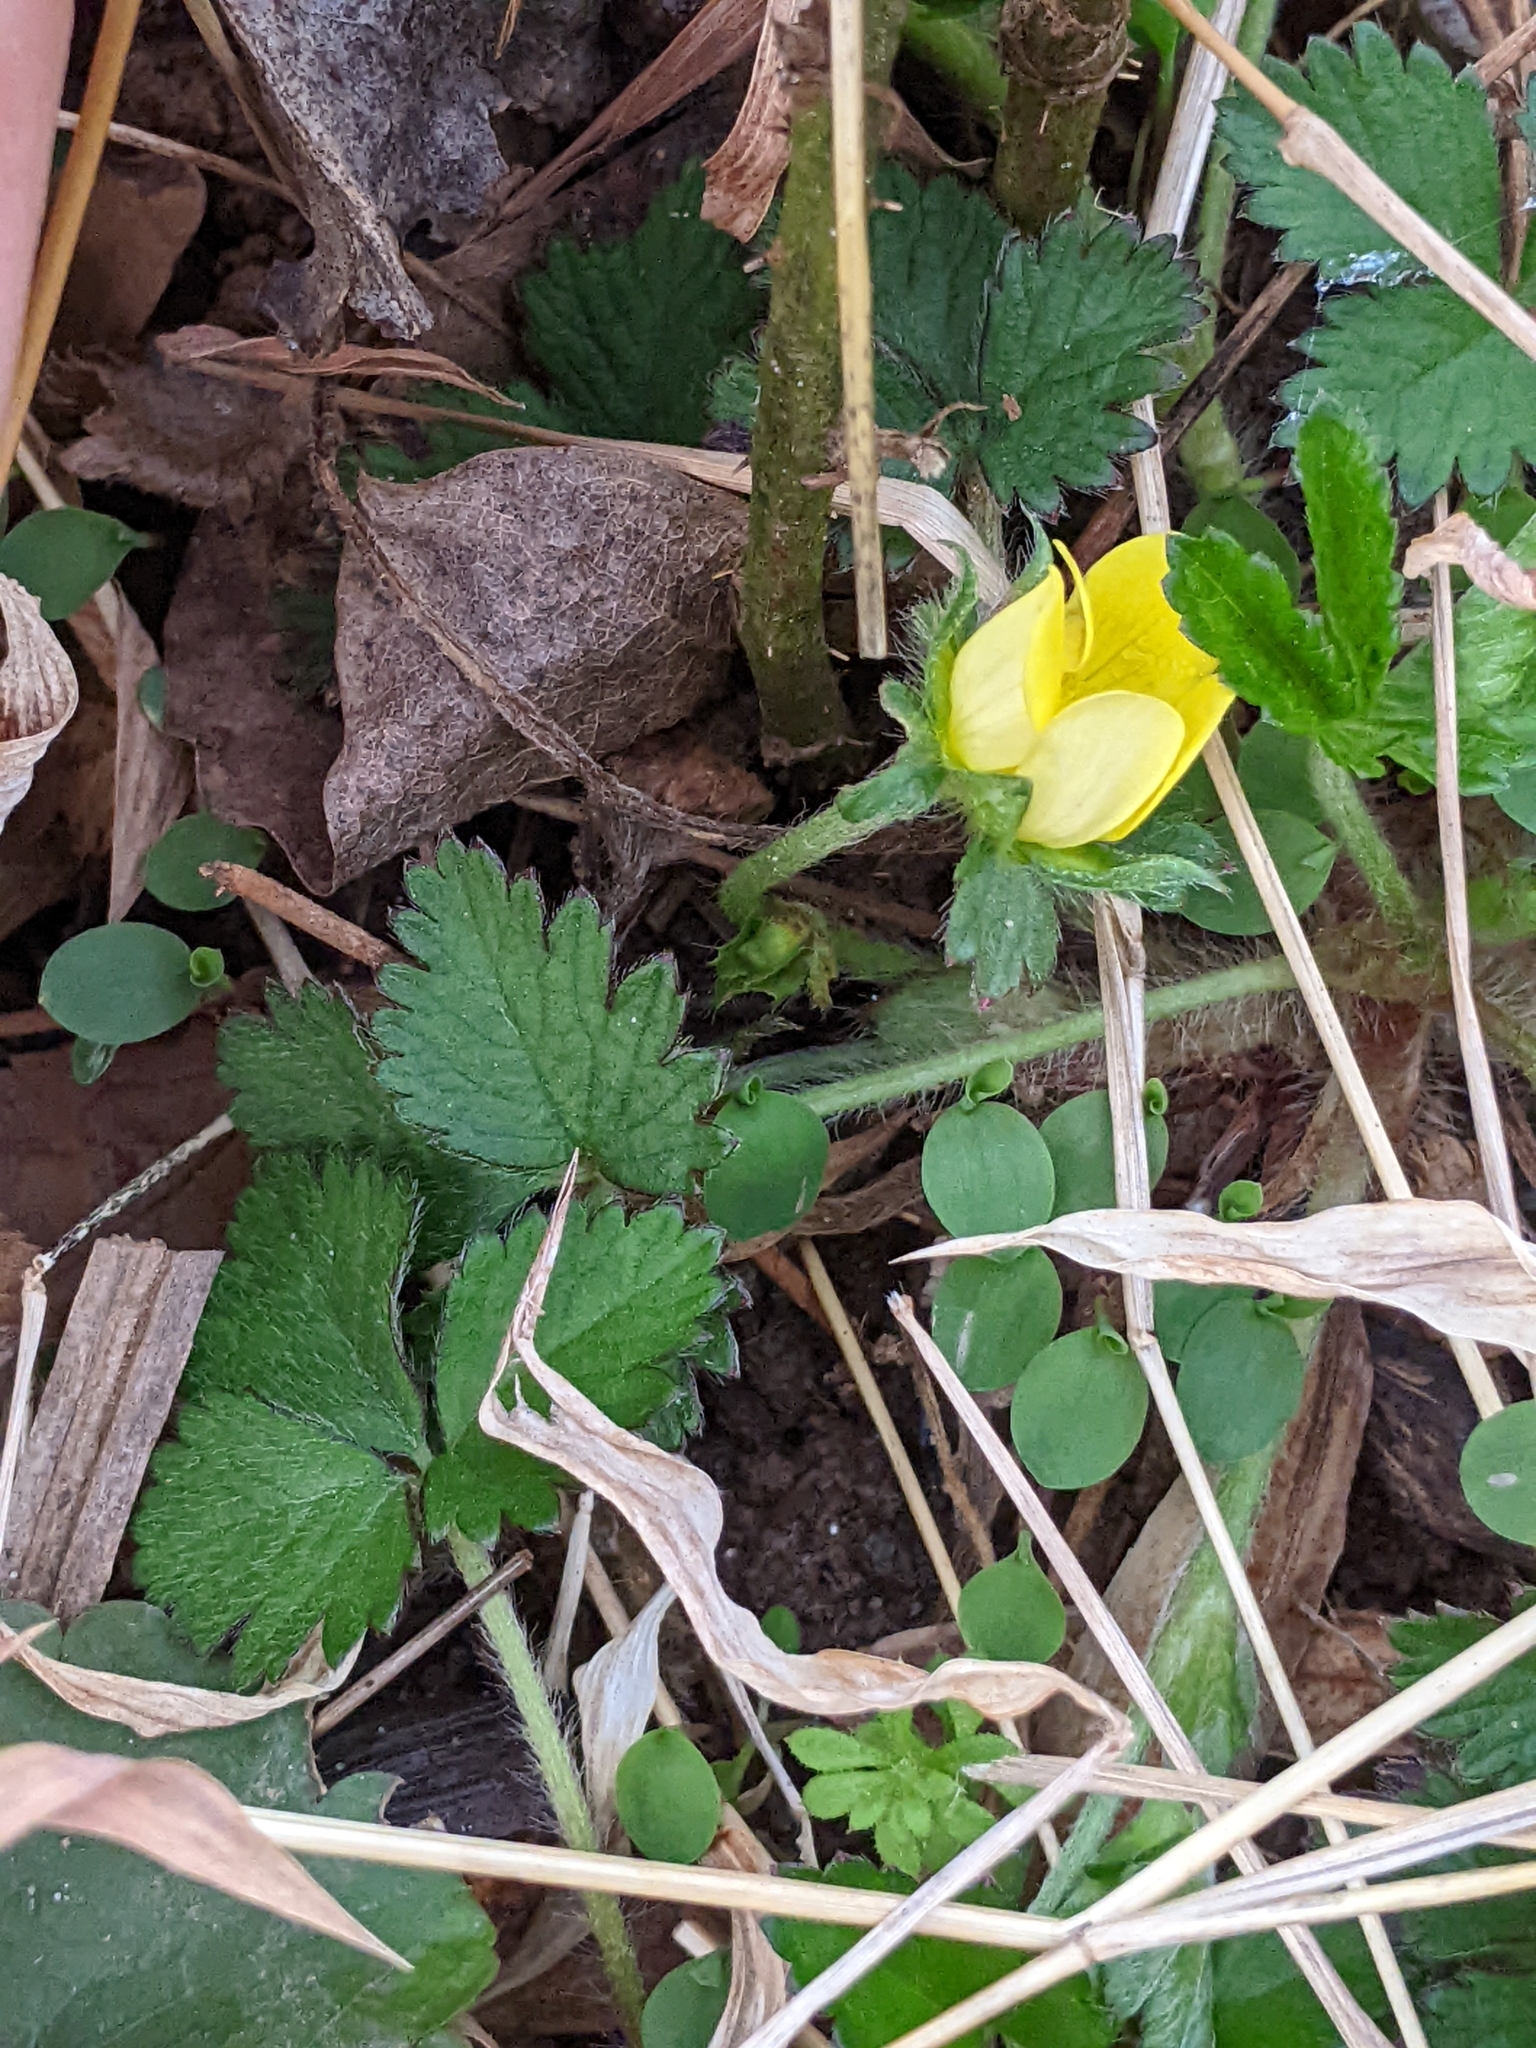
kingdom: Plantae
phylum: Tracheophyta
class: Magnoliopsida
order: Rosales
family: Rosaceae
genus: Potentilla
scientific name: Potentilla indica
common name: Yellow-flowered strawberry
